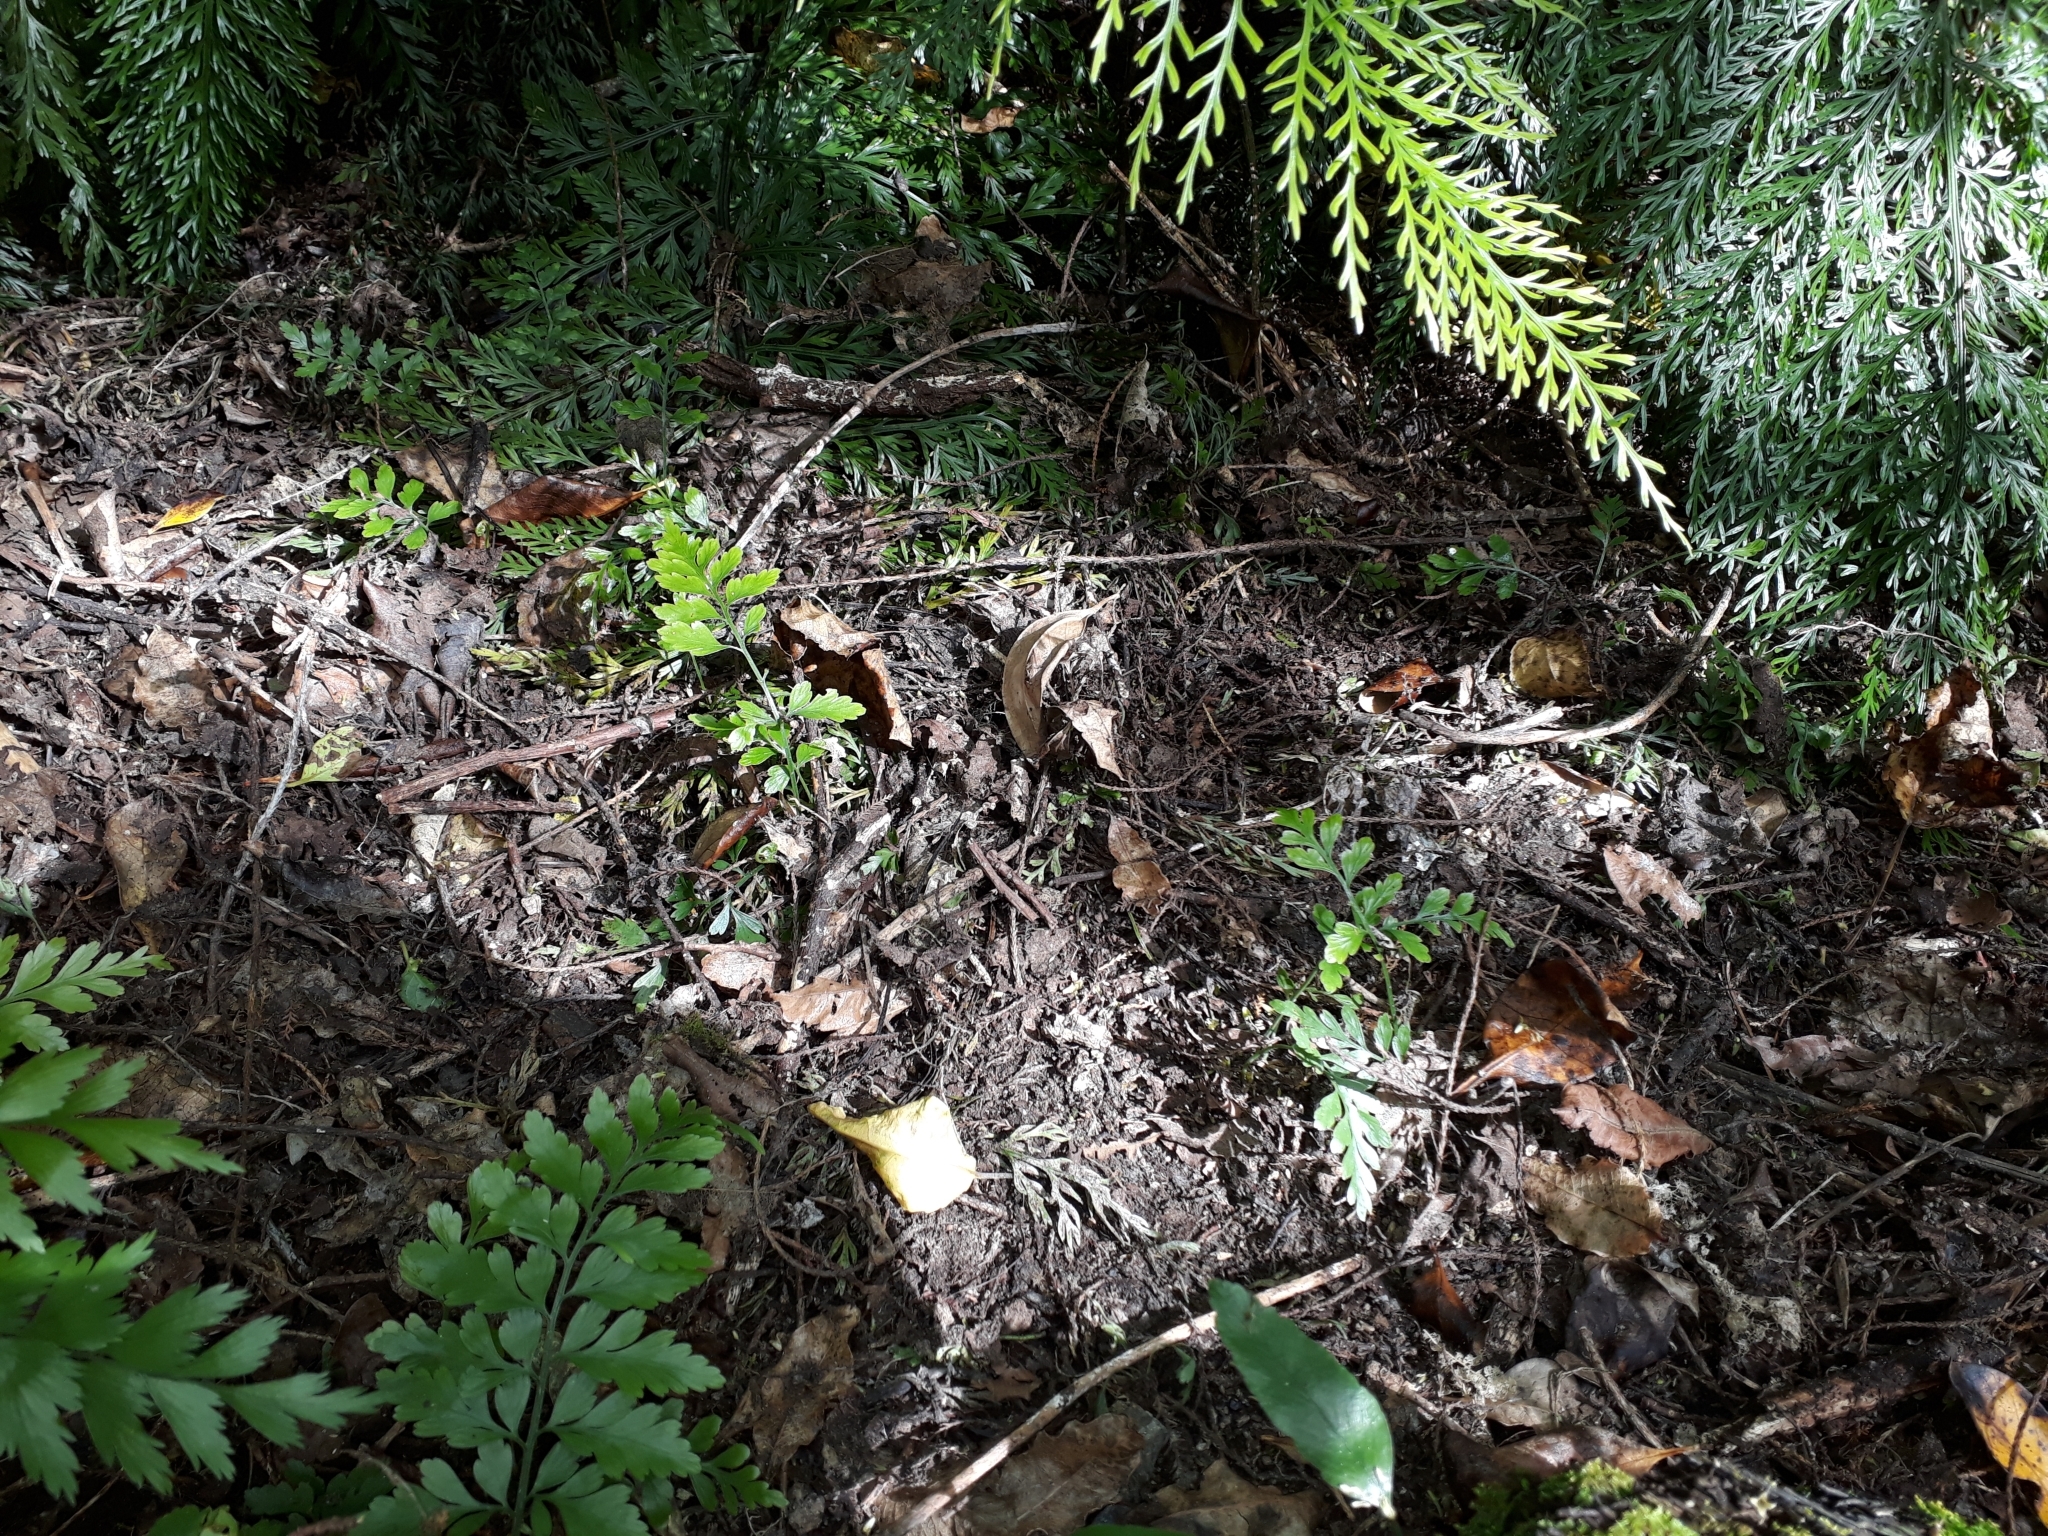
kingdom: Plantae
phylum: Tracheophyta
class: Polypodiopsida
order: Polypodiales
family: Aspleniaceae
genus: Asplenium
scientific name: Asplenium lucrosum
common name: False hen-and-chickens fern
